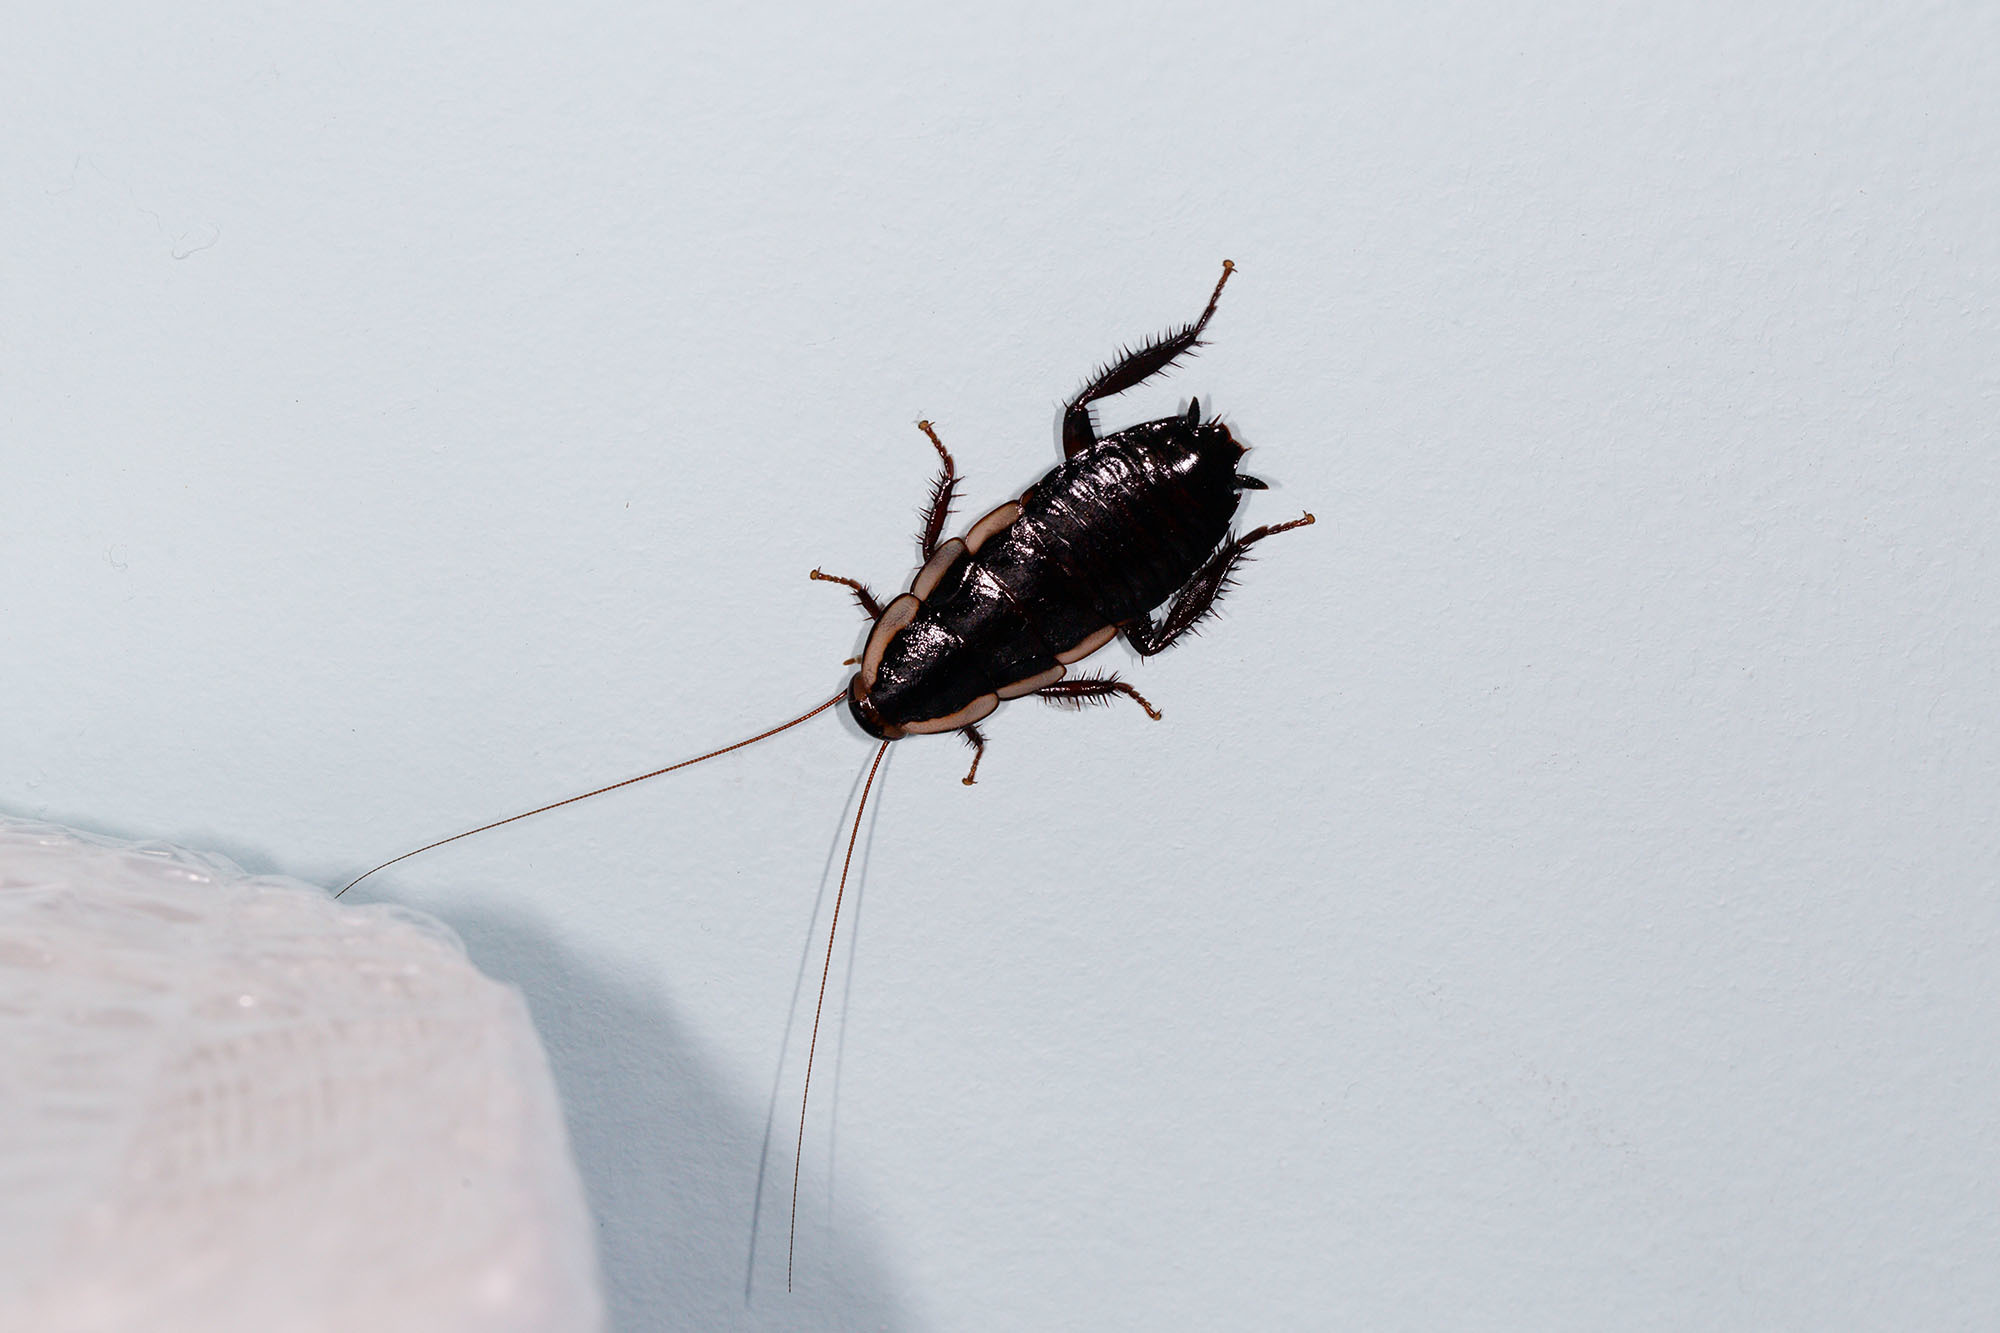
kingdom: Animalia
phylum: Arthropoda
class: Insecta
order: Blattodea
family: Blattidae
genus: Drymaplaneta
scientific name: Drymaplaneta semivitta
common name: Gisborne cockroach
